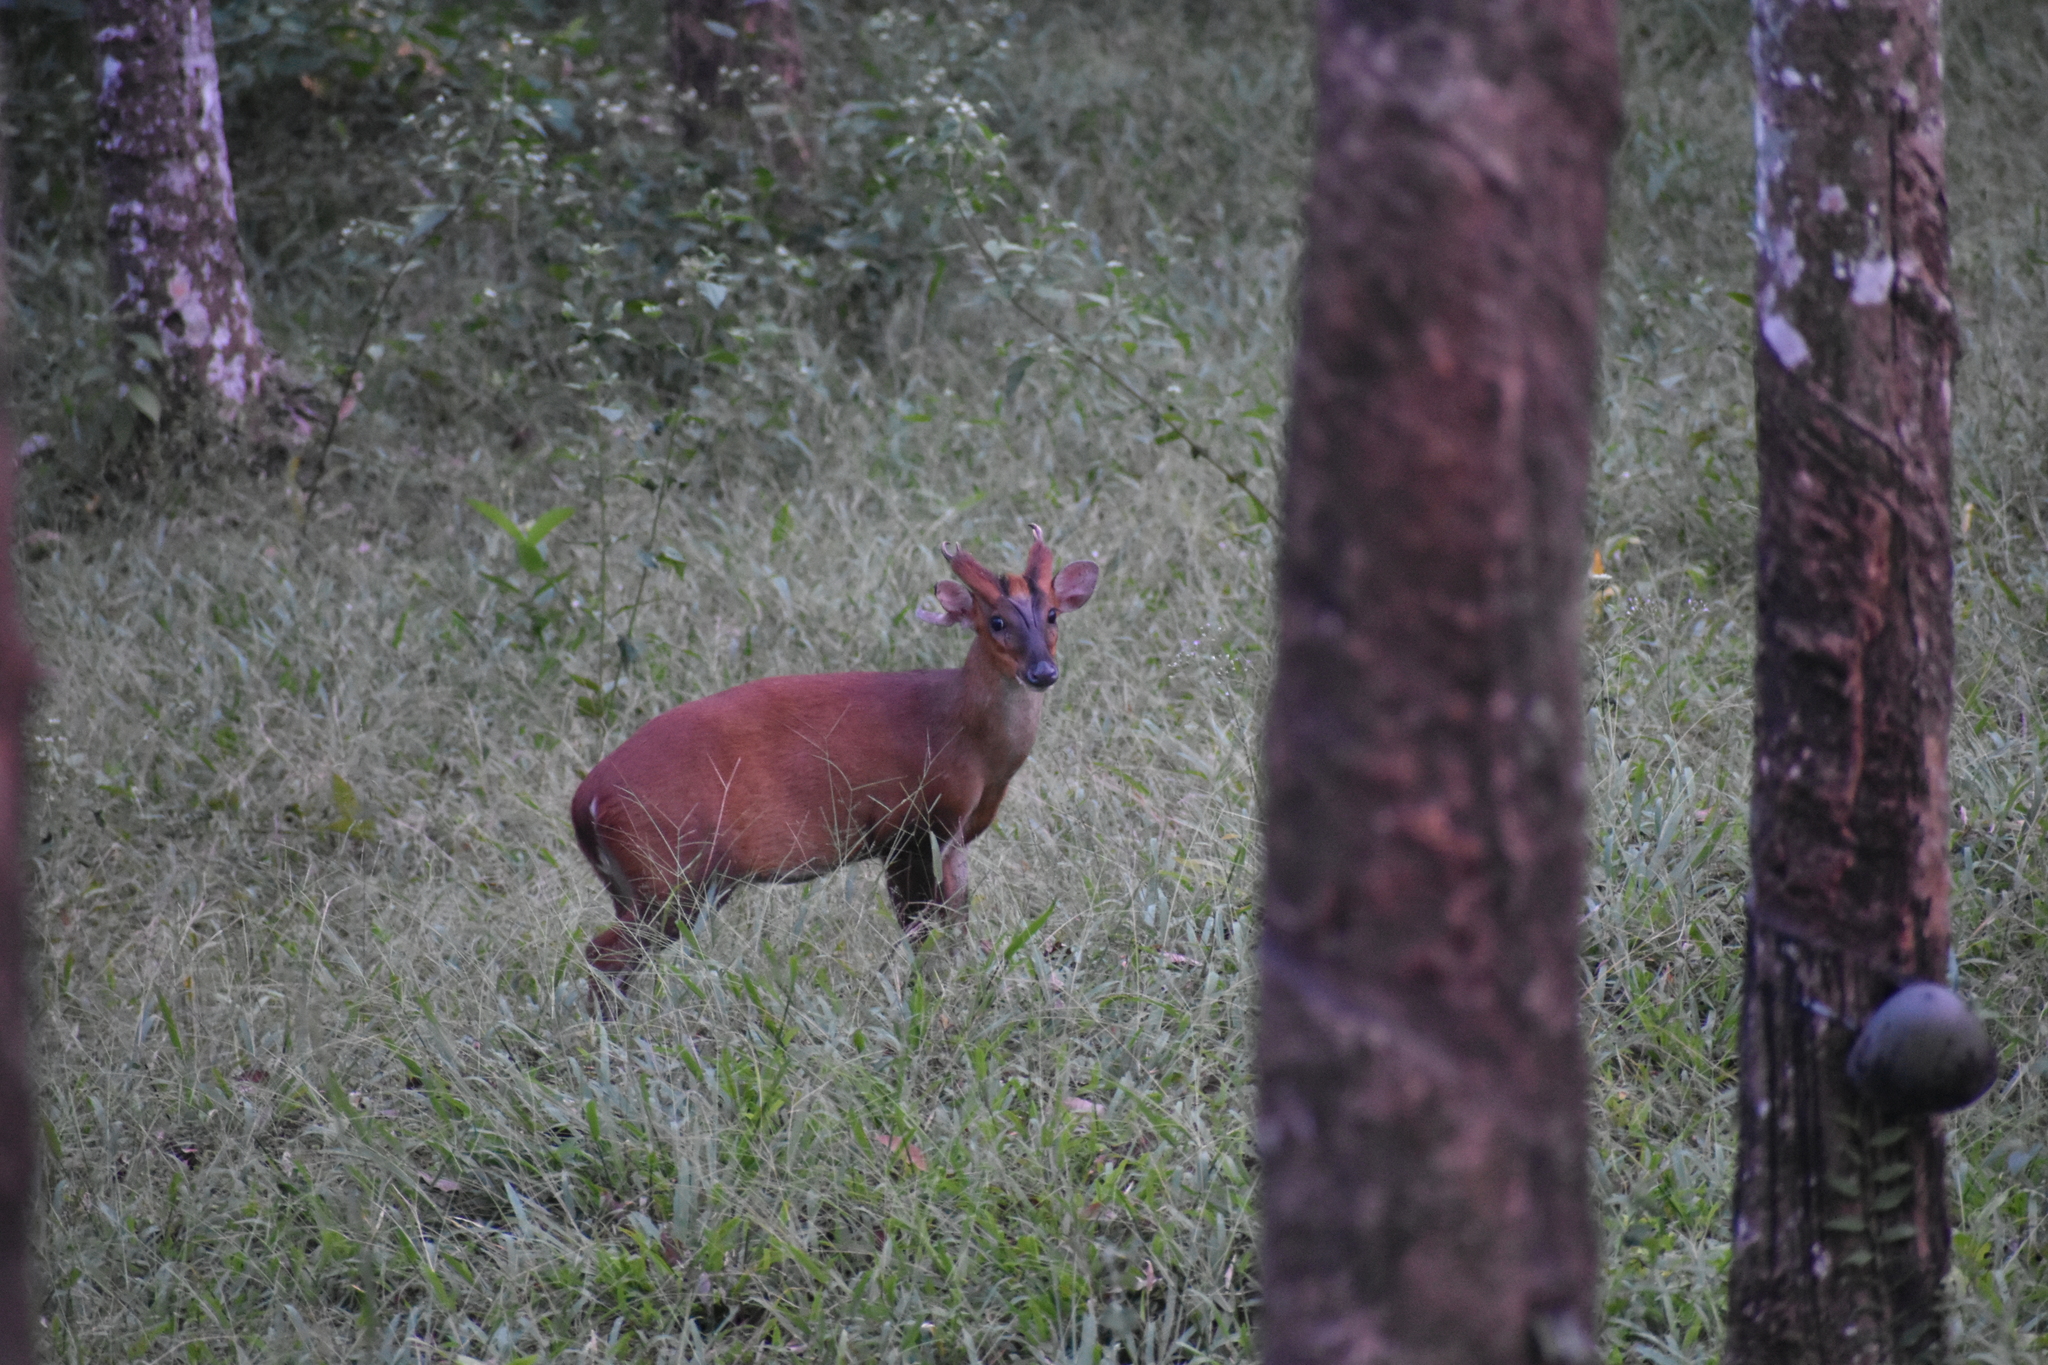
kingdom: Animalia
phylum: Chordata
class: Mammalia
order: Artiodactyla
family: Cervidae
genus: Muntiacus
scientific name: Muntiacus muntjak
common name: Indian muntjac
